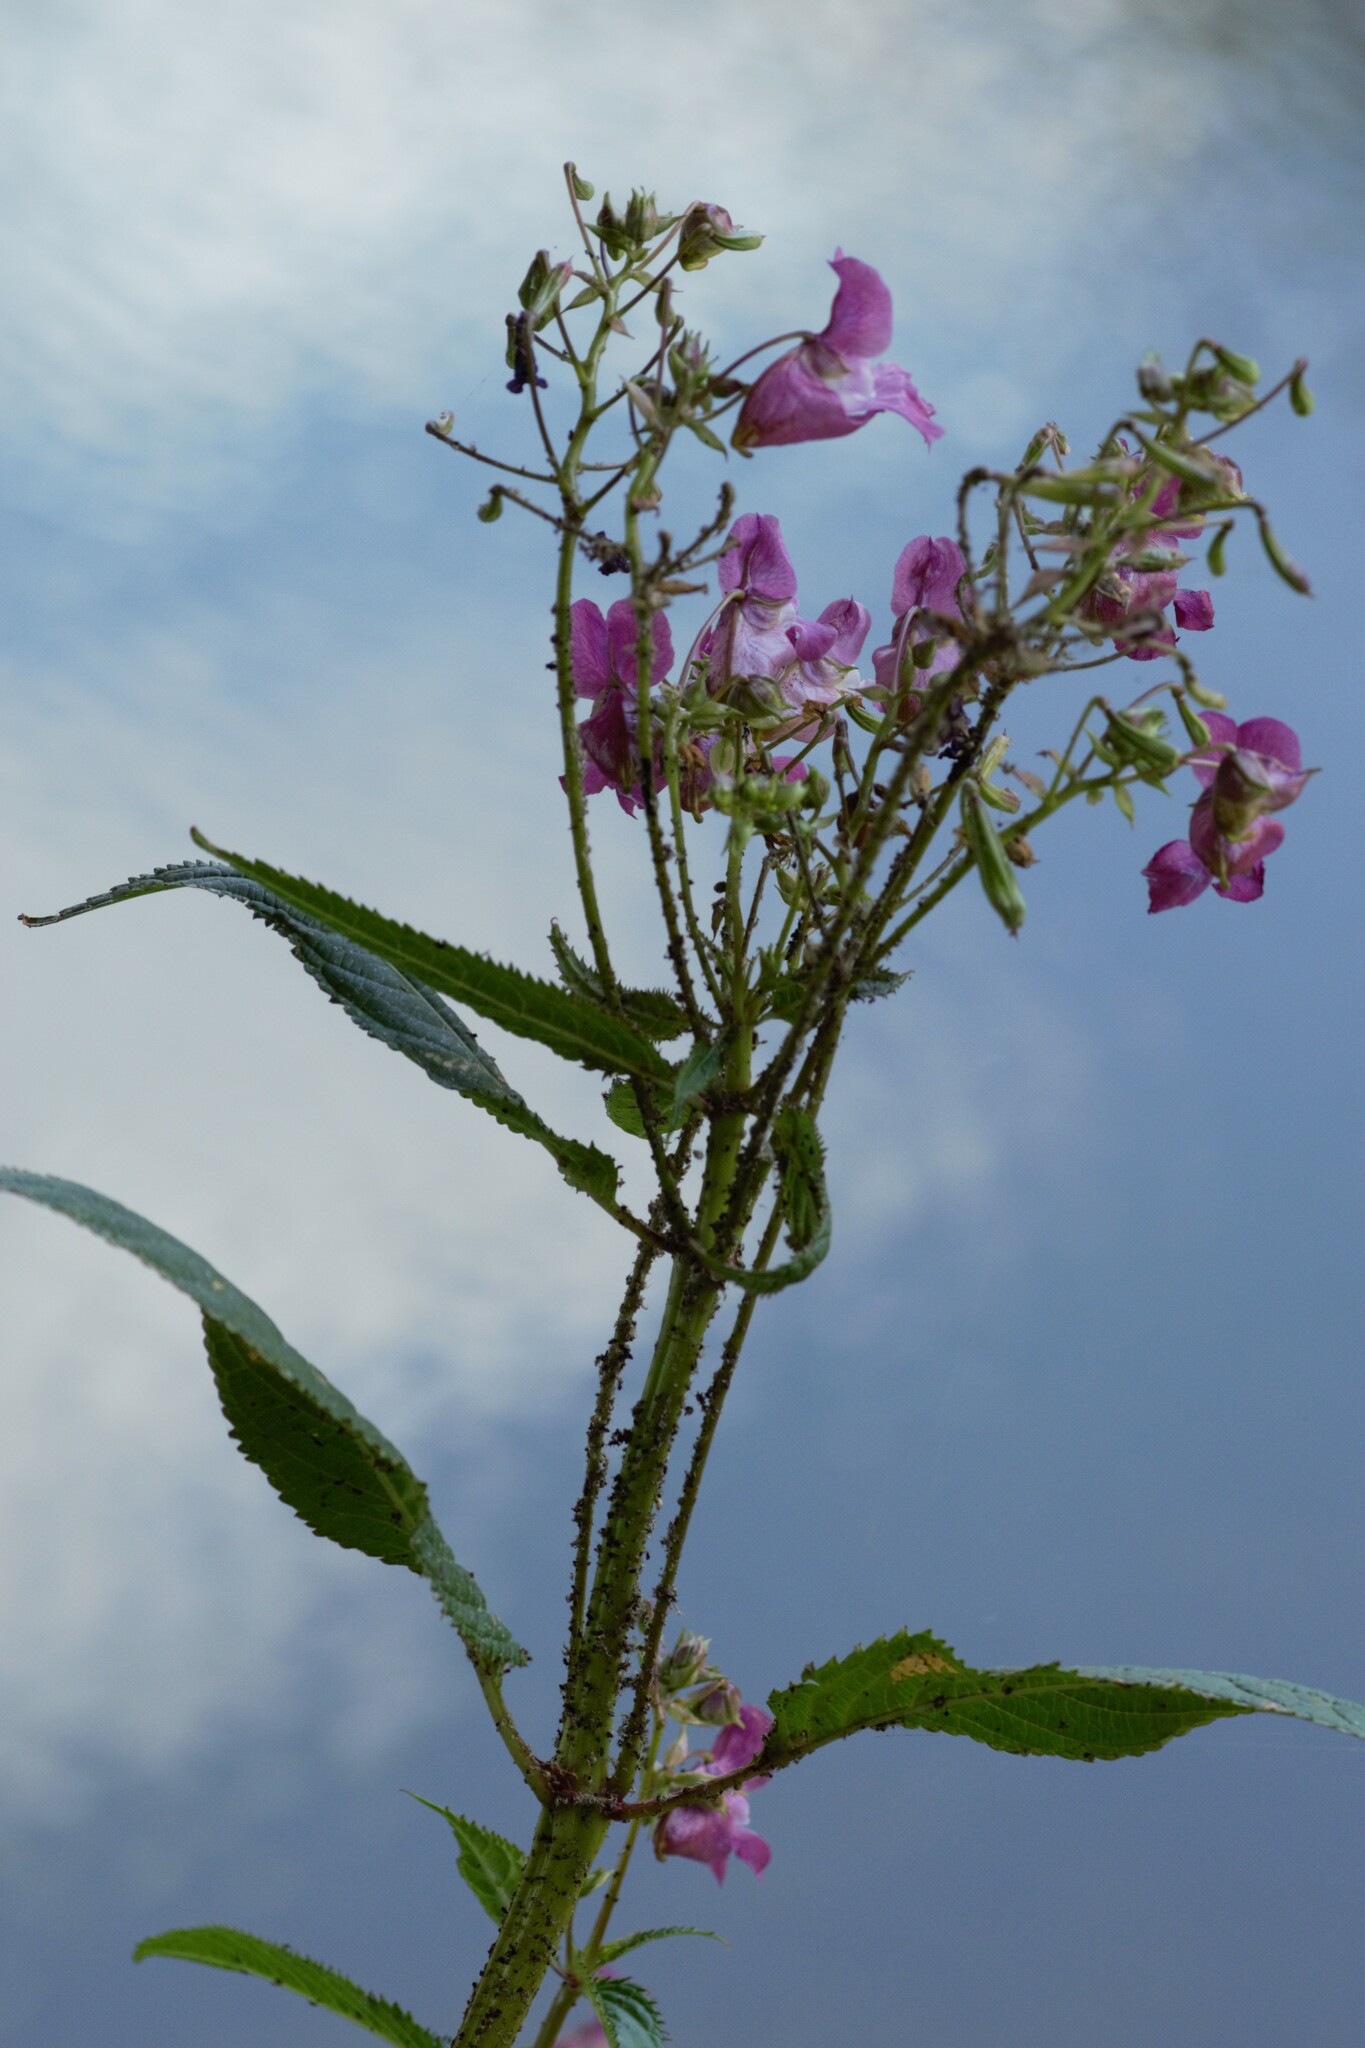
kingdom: Plantae
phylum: Tracheophyta
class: Magnoliopsida
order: Ericales
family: Balsaminaceae
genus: Impatiens
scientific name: Impatiens glandulifera
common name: Himalayan balsam
